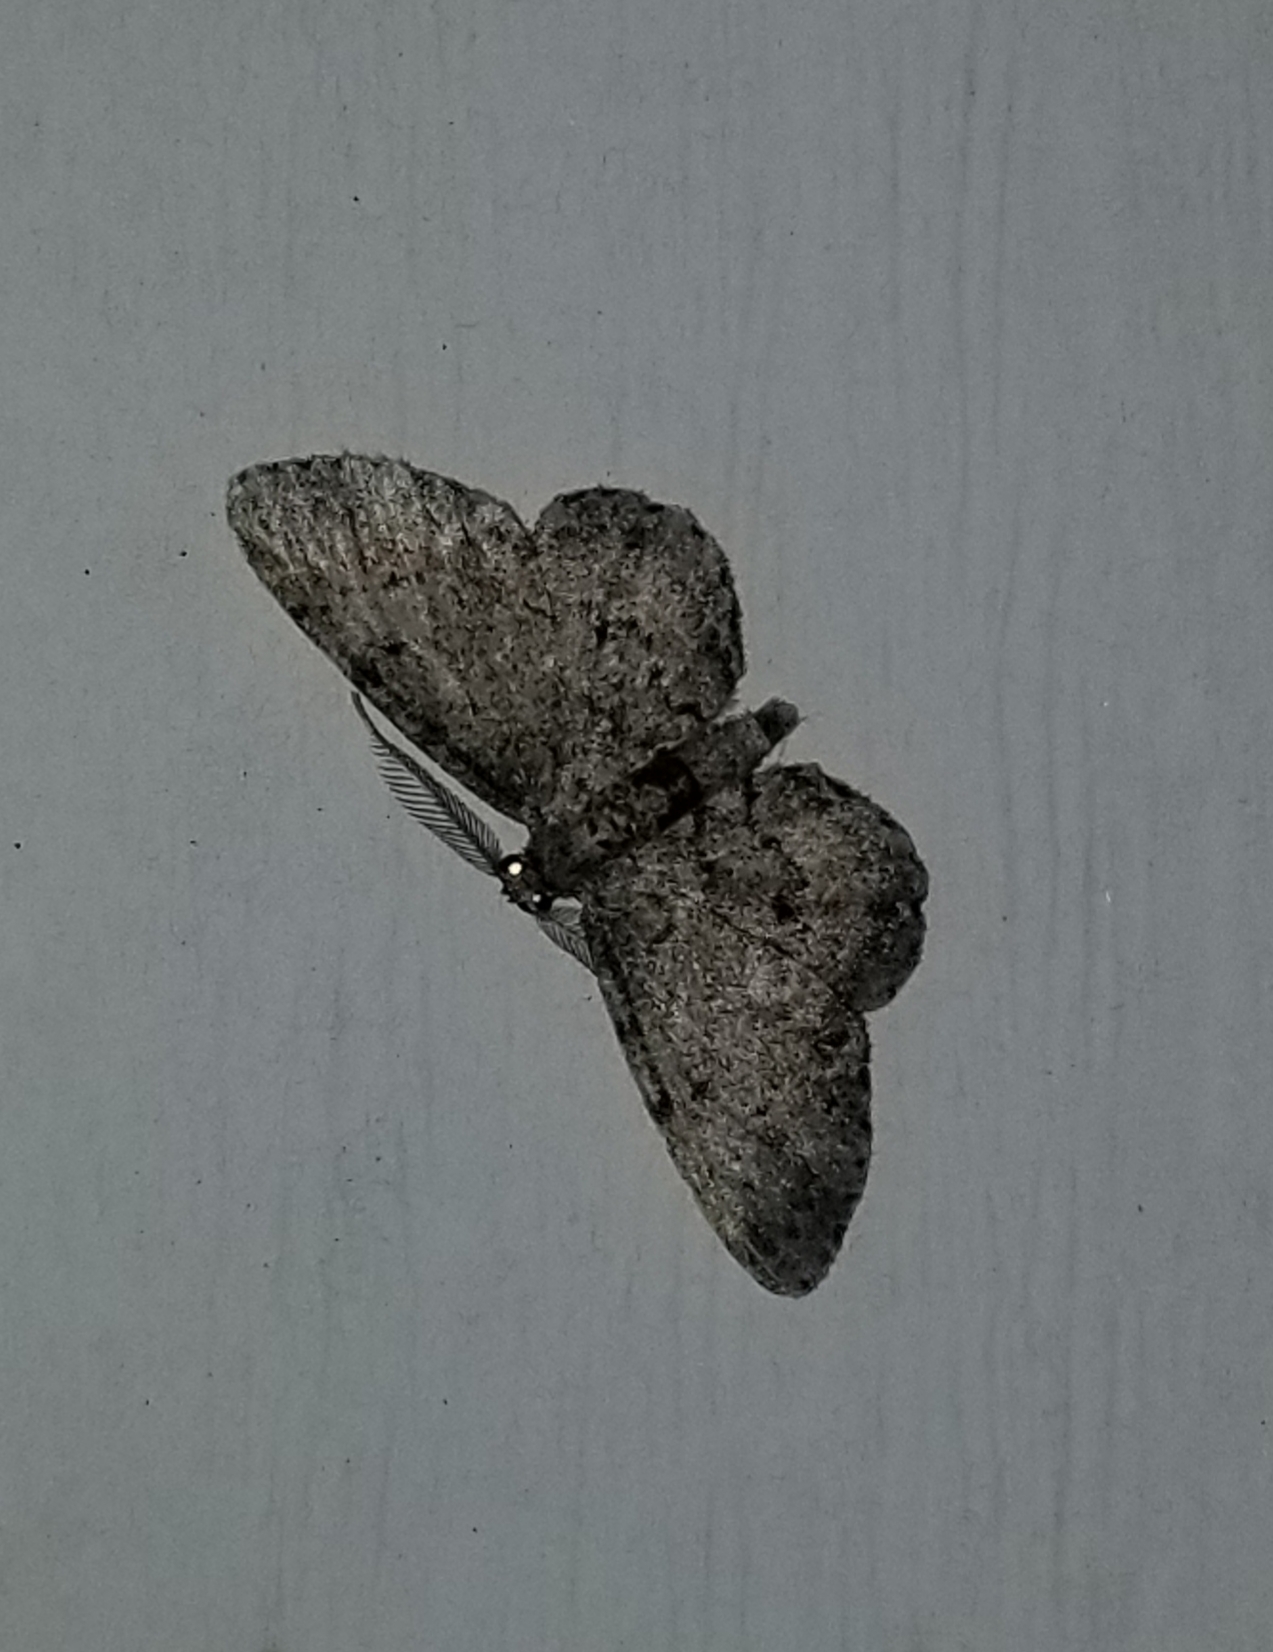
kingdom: Animalia
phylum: Arthropoda
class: Insecta
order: Lepidoptera
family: Geometridae
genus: Glenoides
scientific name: Glenoides texanaria
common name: Texas gray
